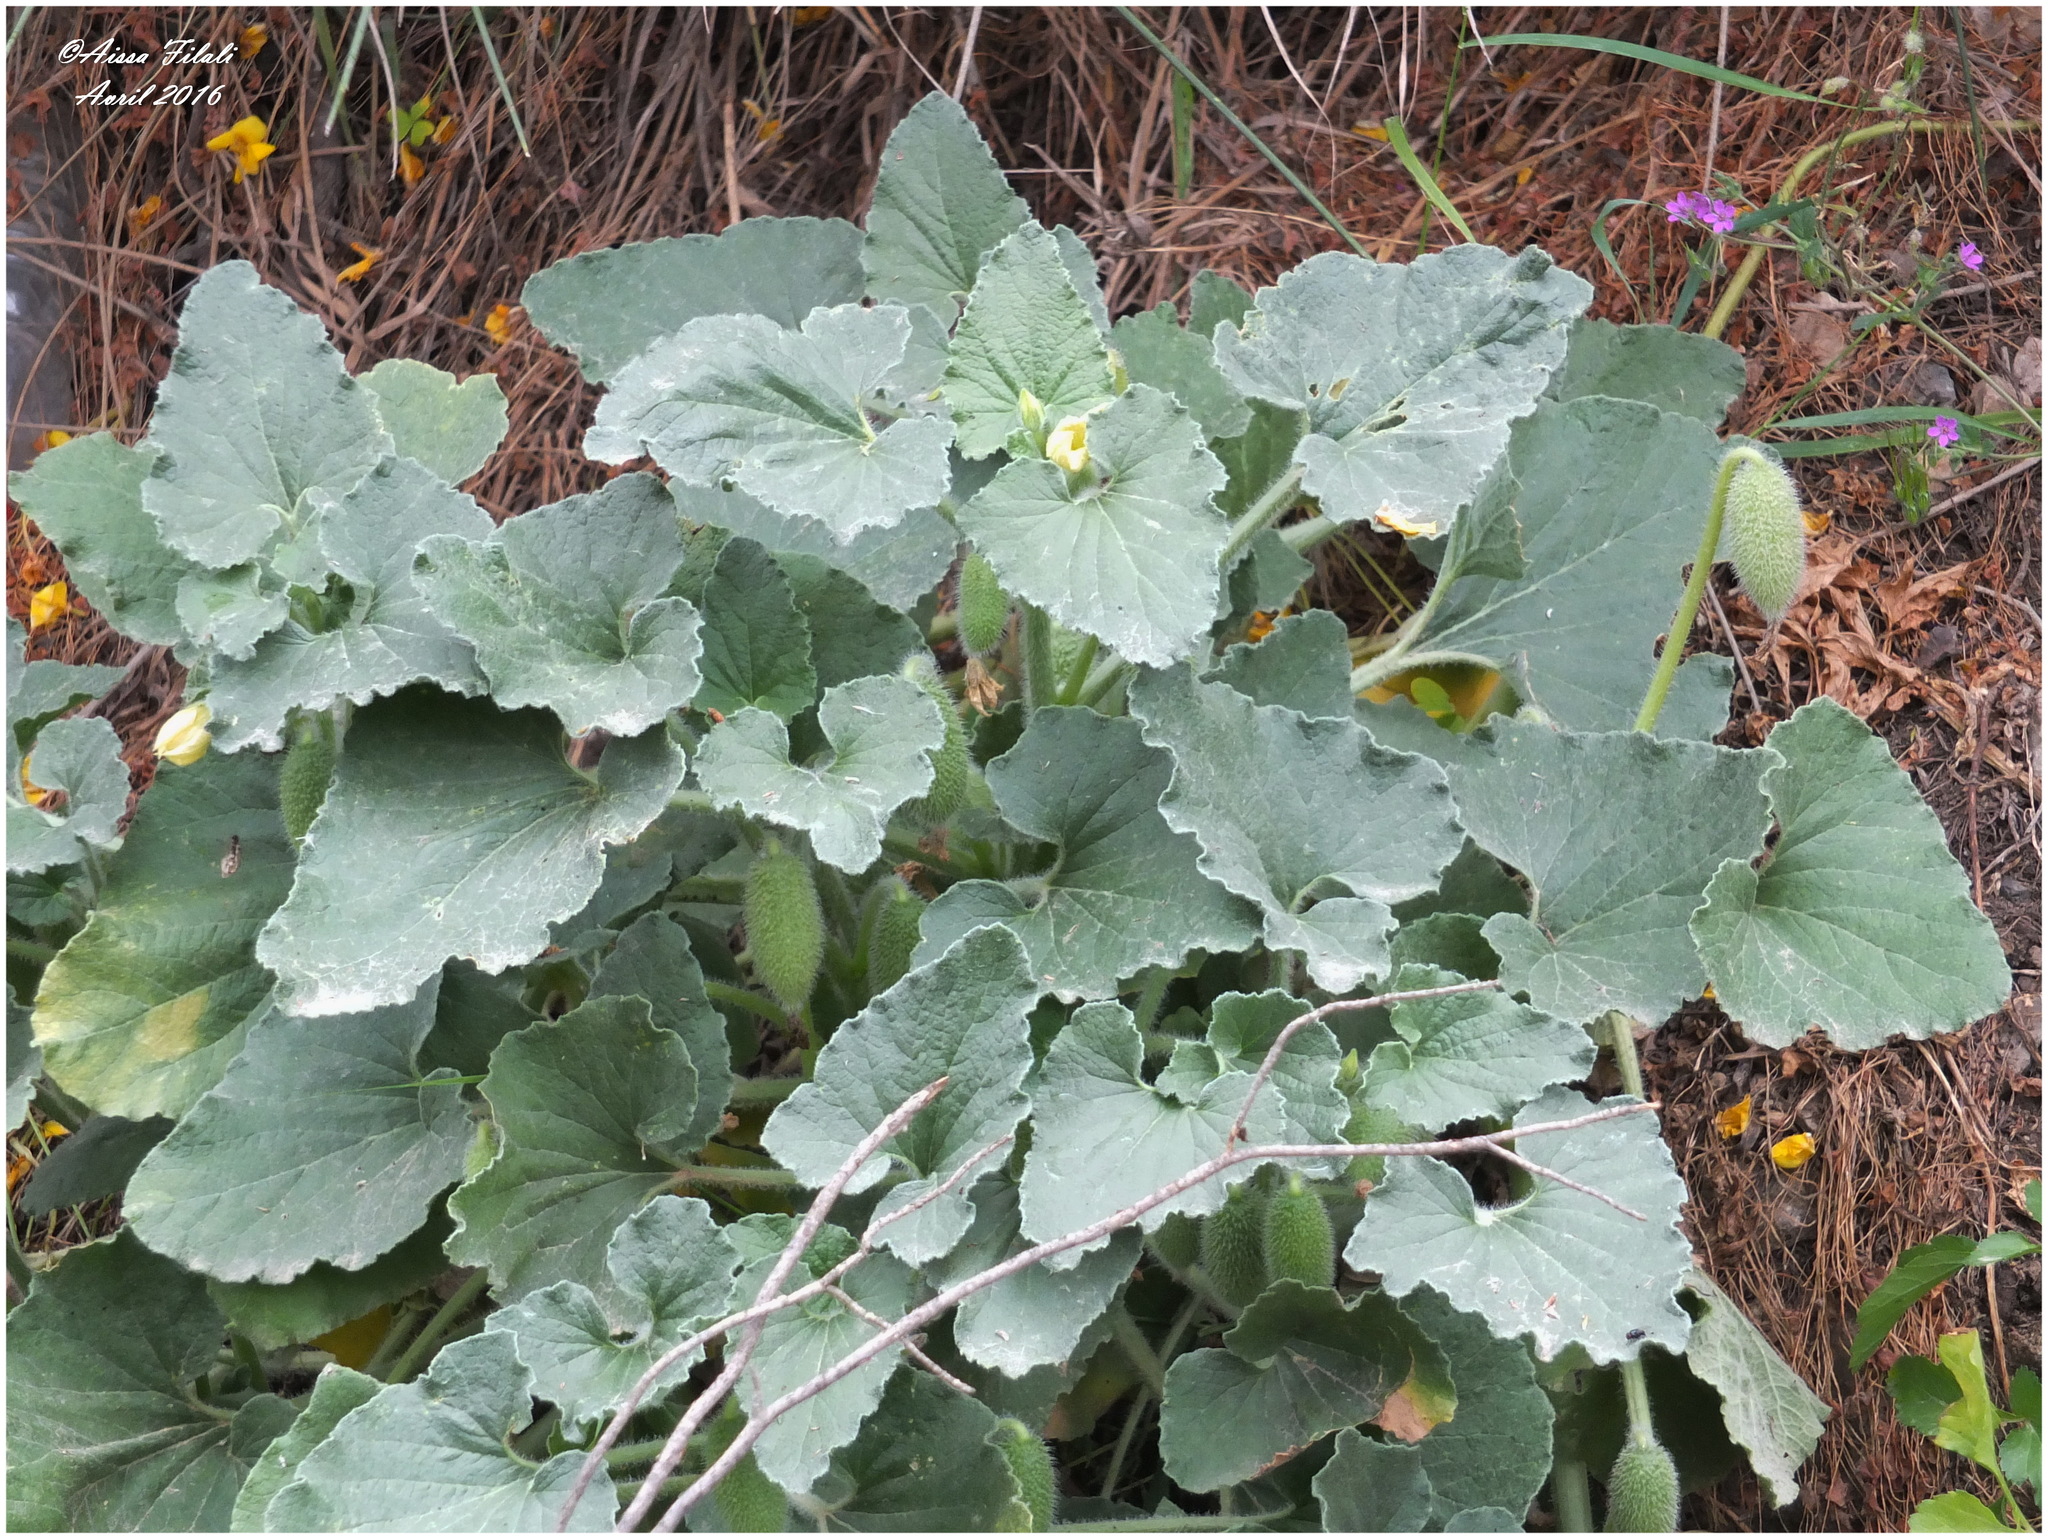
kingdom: Plantae
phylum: Tracheophyta
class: Magnoliopsida
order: Cucurbitales
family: Cucurbitaceae
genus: Ecballium
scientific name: Ecballium elaterium
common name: Squirting cucumber
